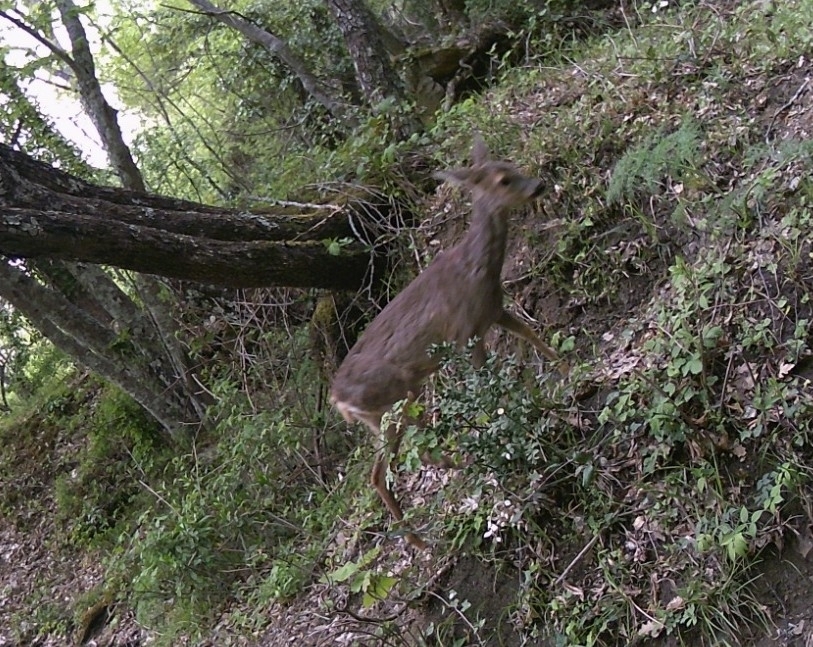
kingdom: Animalia
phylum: Chordata
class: Mammalia
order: Artiodactyla
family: Cervidae
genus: Capreolus
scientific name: Capreolus capreolus
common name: Western roe deer
